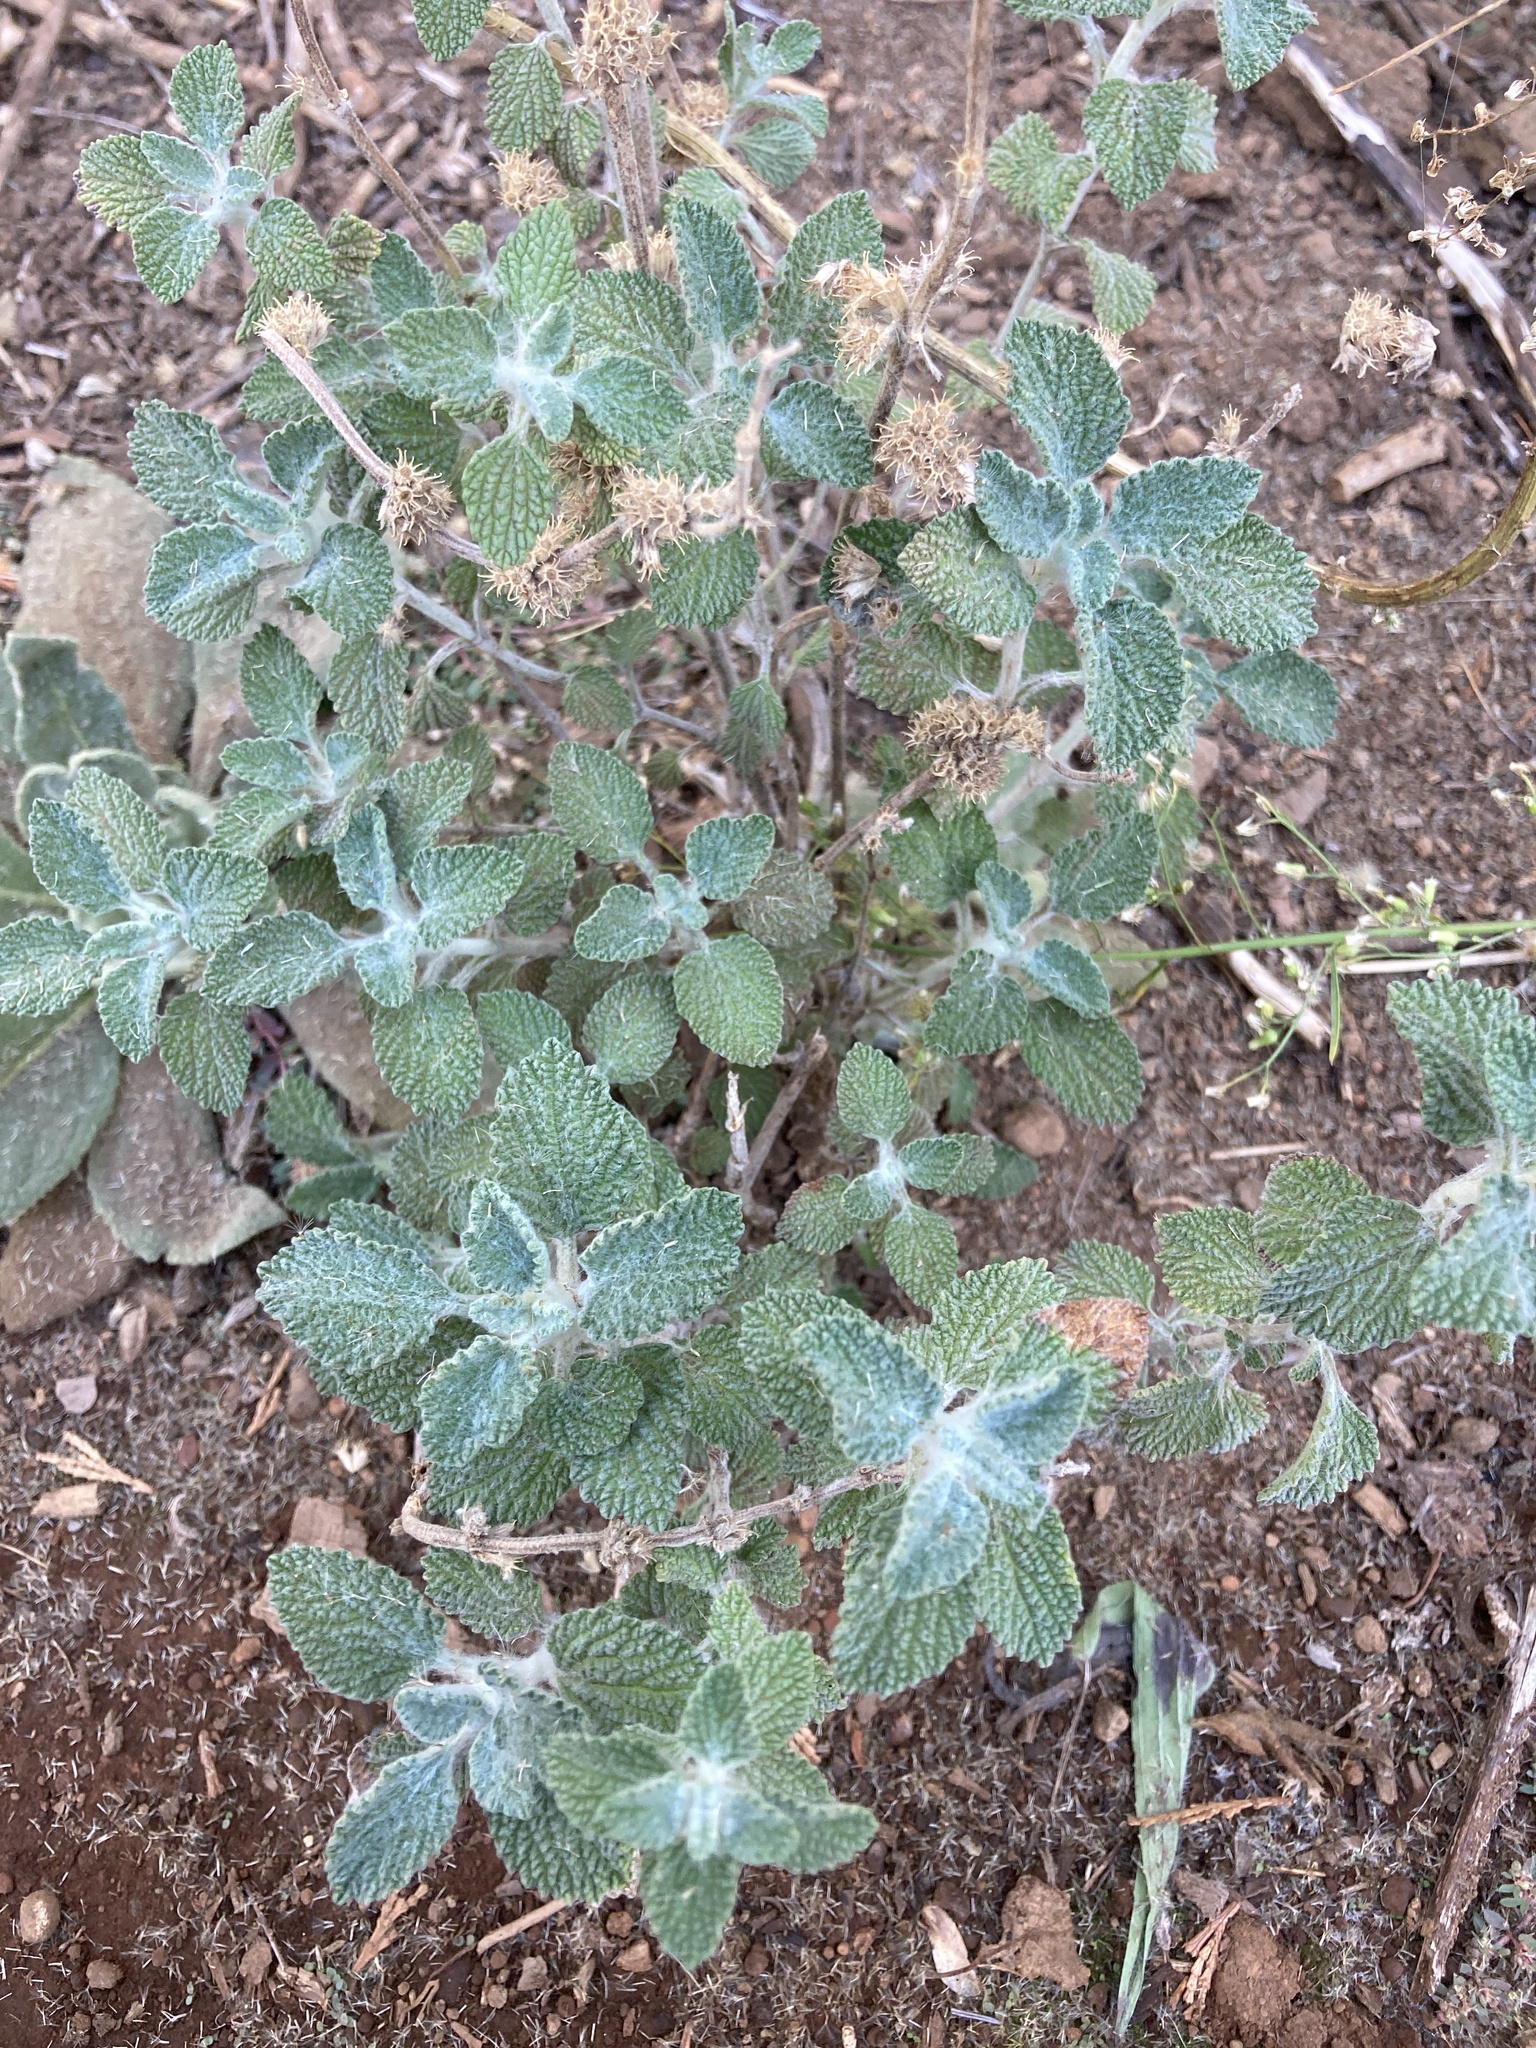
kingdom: Plantae
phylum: Tracheophyta
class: Magnoliopsida
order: Lamiales
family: Lamiaceae
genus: Marrubium
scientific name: Marrubium vulgare
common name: Horehound
